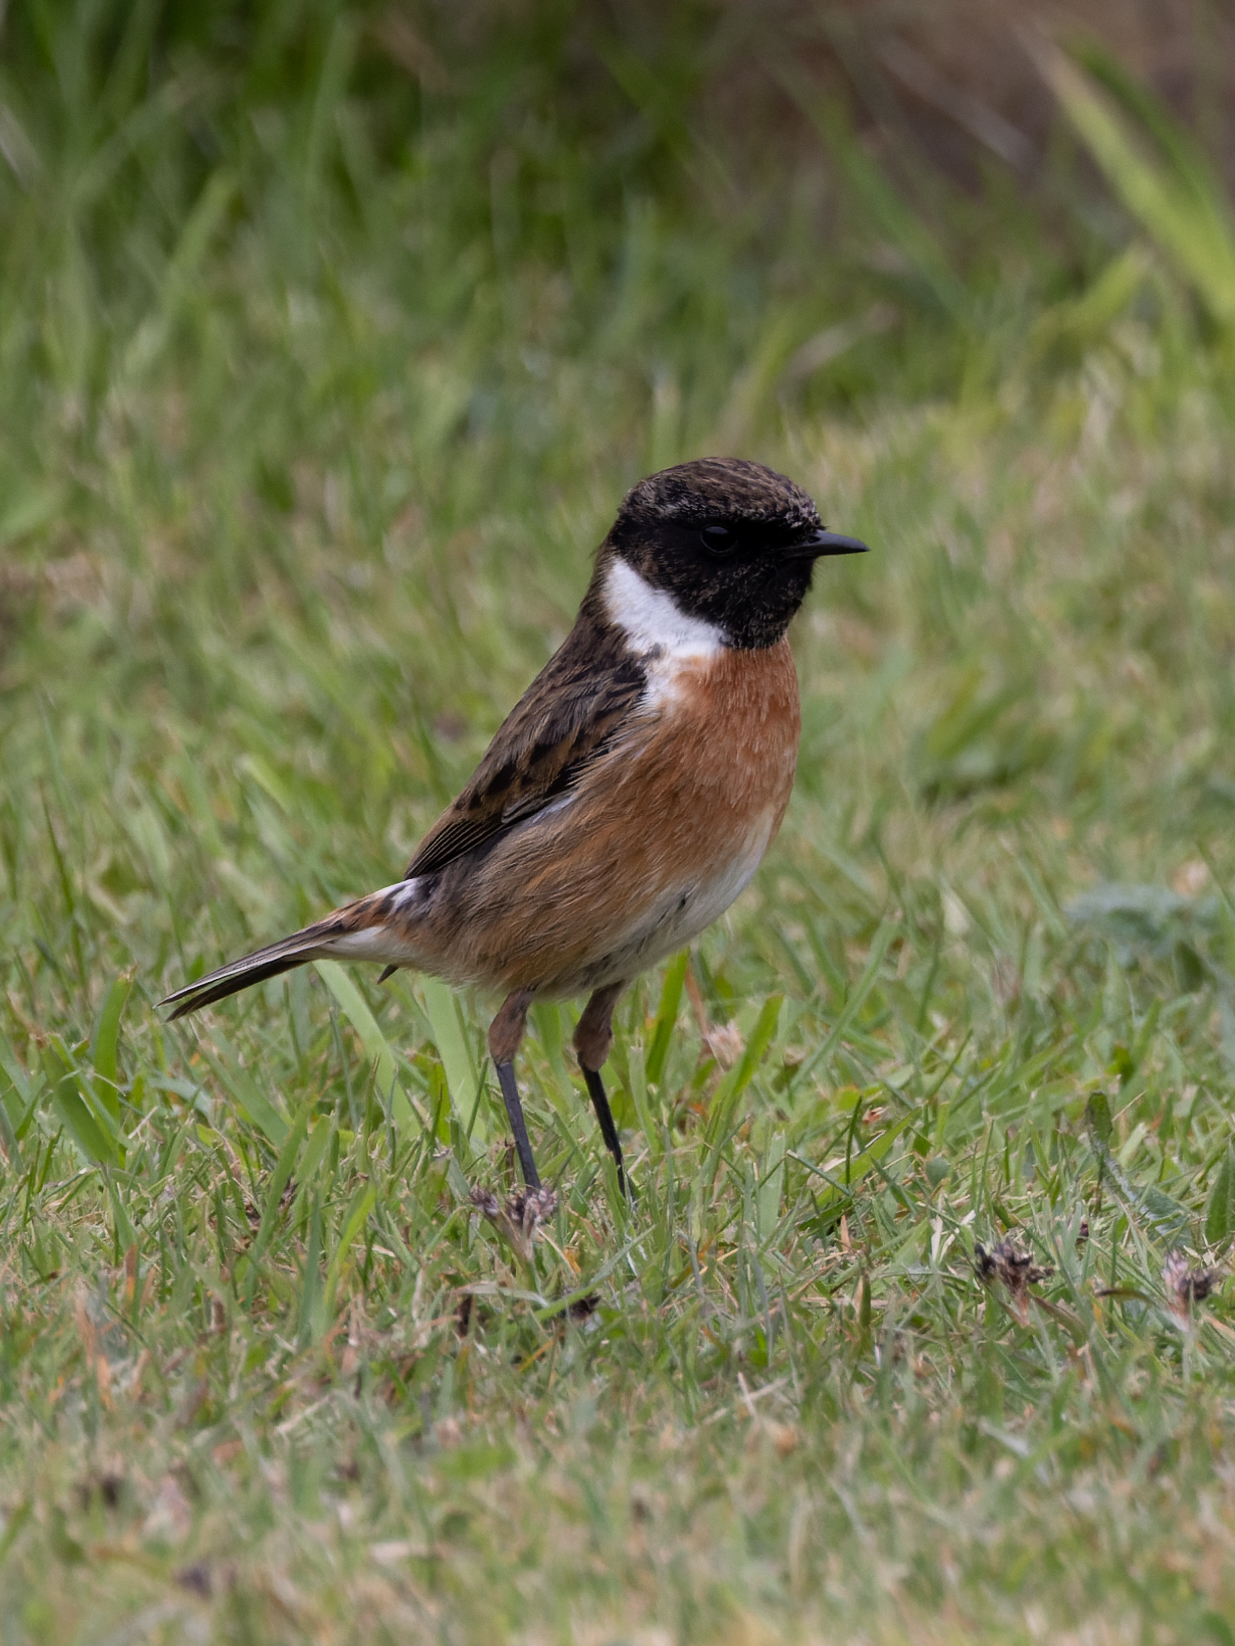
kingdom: Animalia
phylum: Chordata
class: Aves
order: Passeriformes
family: Muscicapidae
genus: Saxicola
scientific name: Saxicola rubicola
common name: European stonechat
